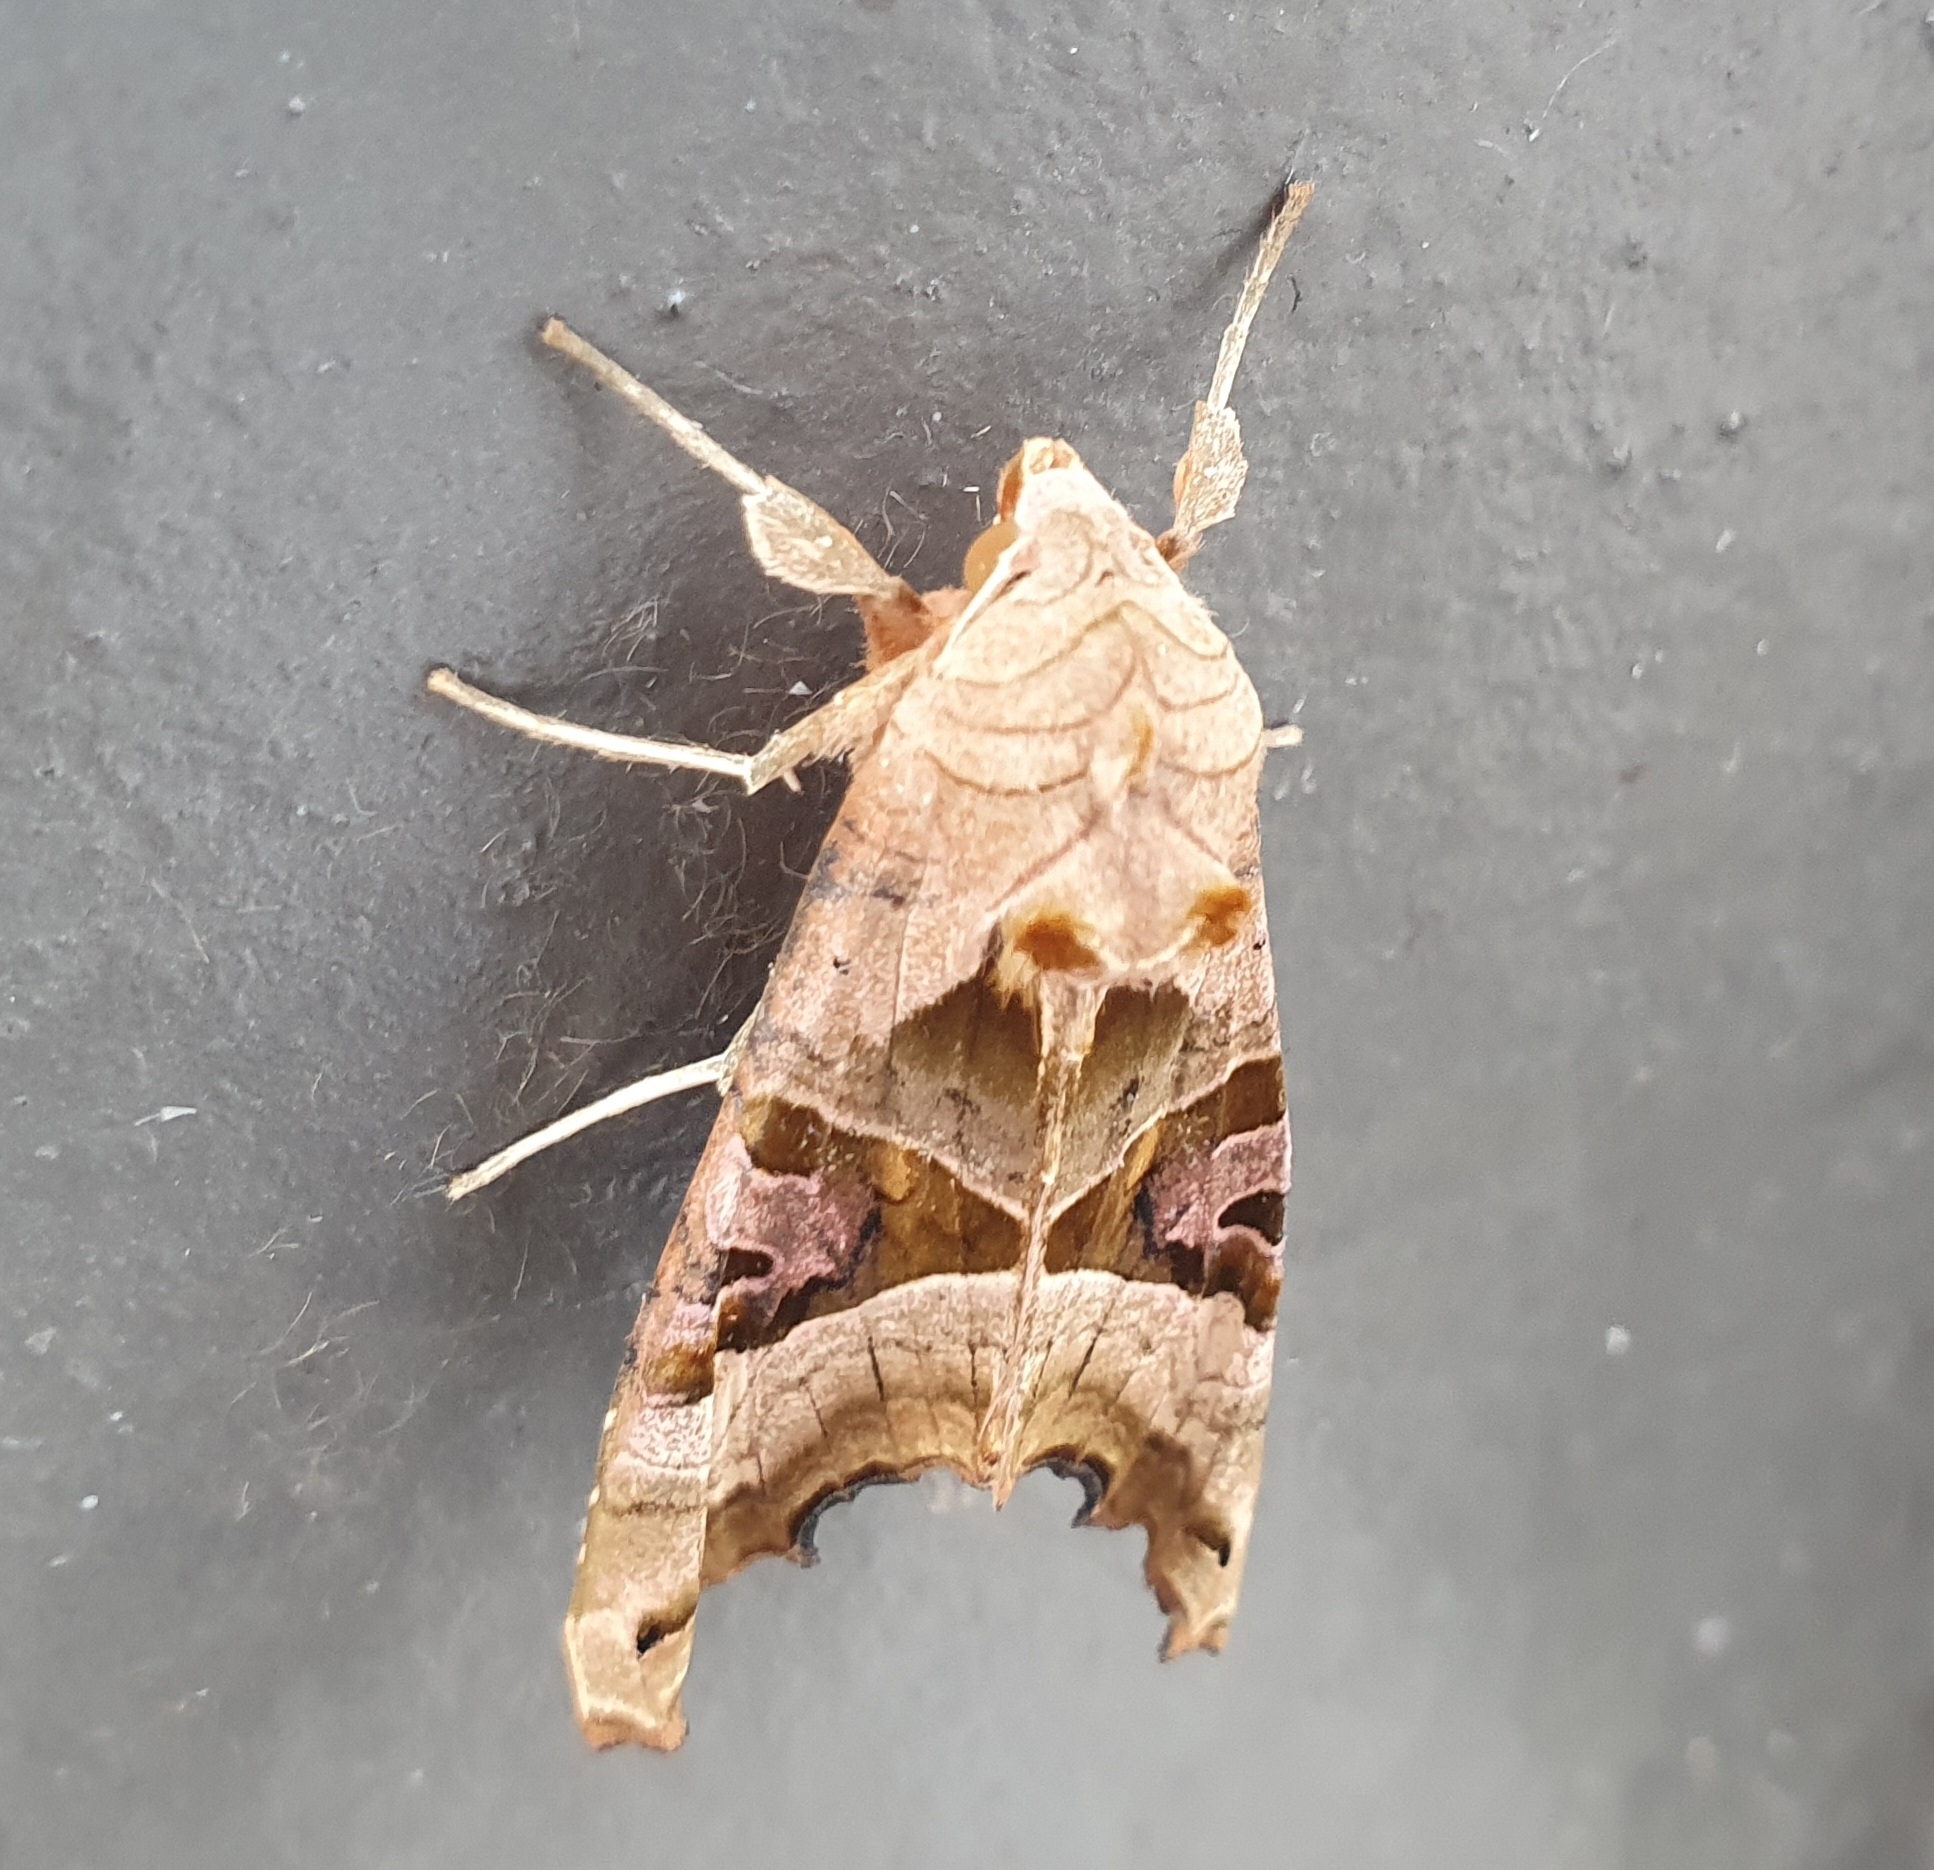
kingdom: Animalia
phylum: Arthropoda
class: Insecta
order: Lepidoptera
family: Noctuidae
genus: Phlogophora
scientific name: Phlogophora meticulosa
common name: Angle shades
